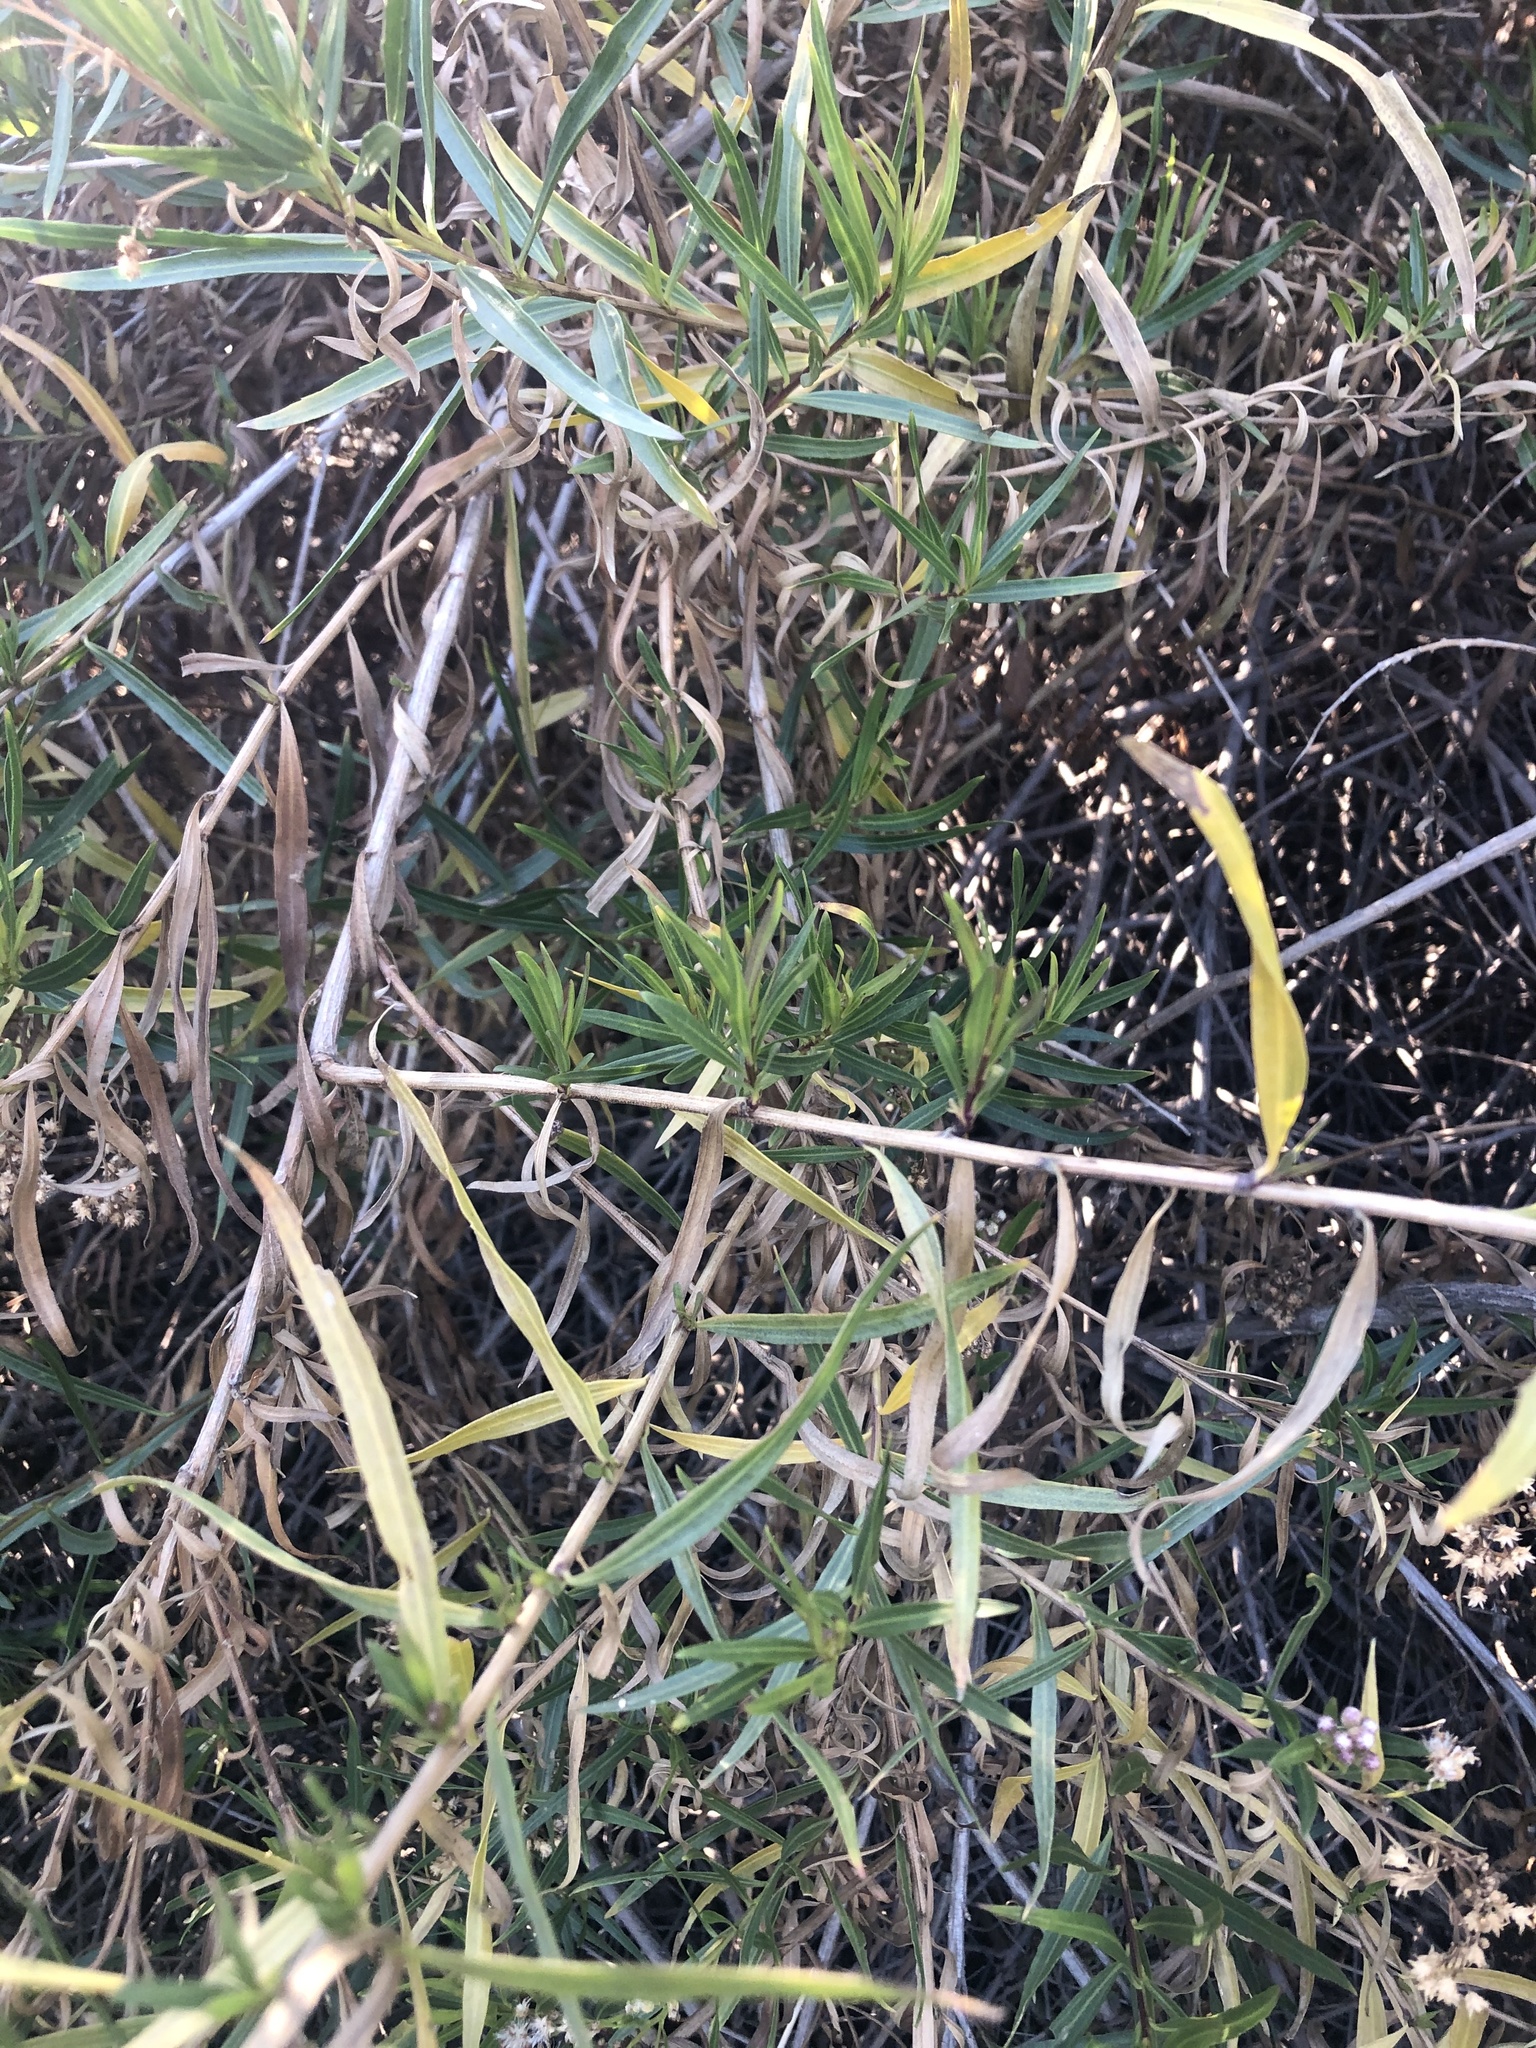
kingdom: Plantae
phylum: Tracheophyta
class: Magnoliopsida
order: Asterales
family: Asteraceae
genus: Baccharis
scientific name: Baccharis salicifolia
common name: Sticky baccharis
